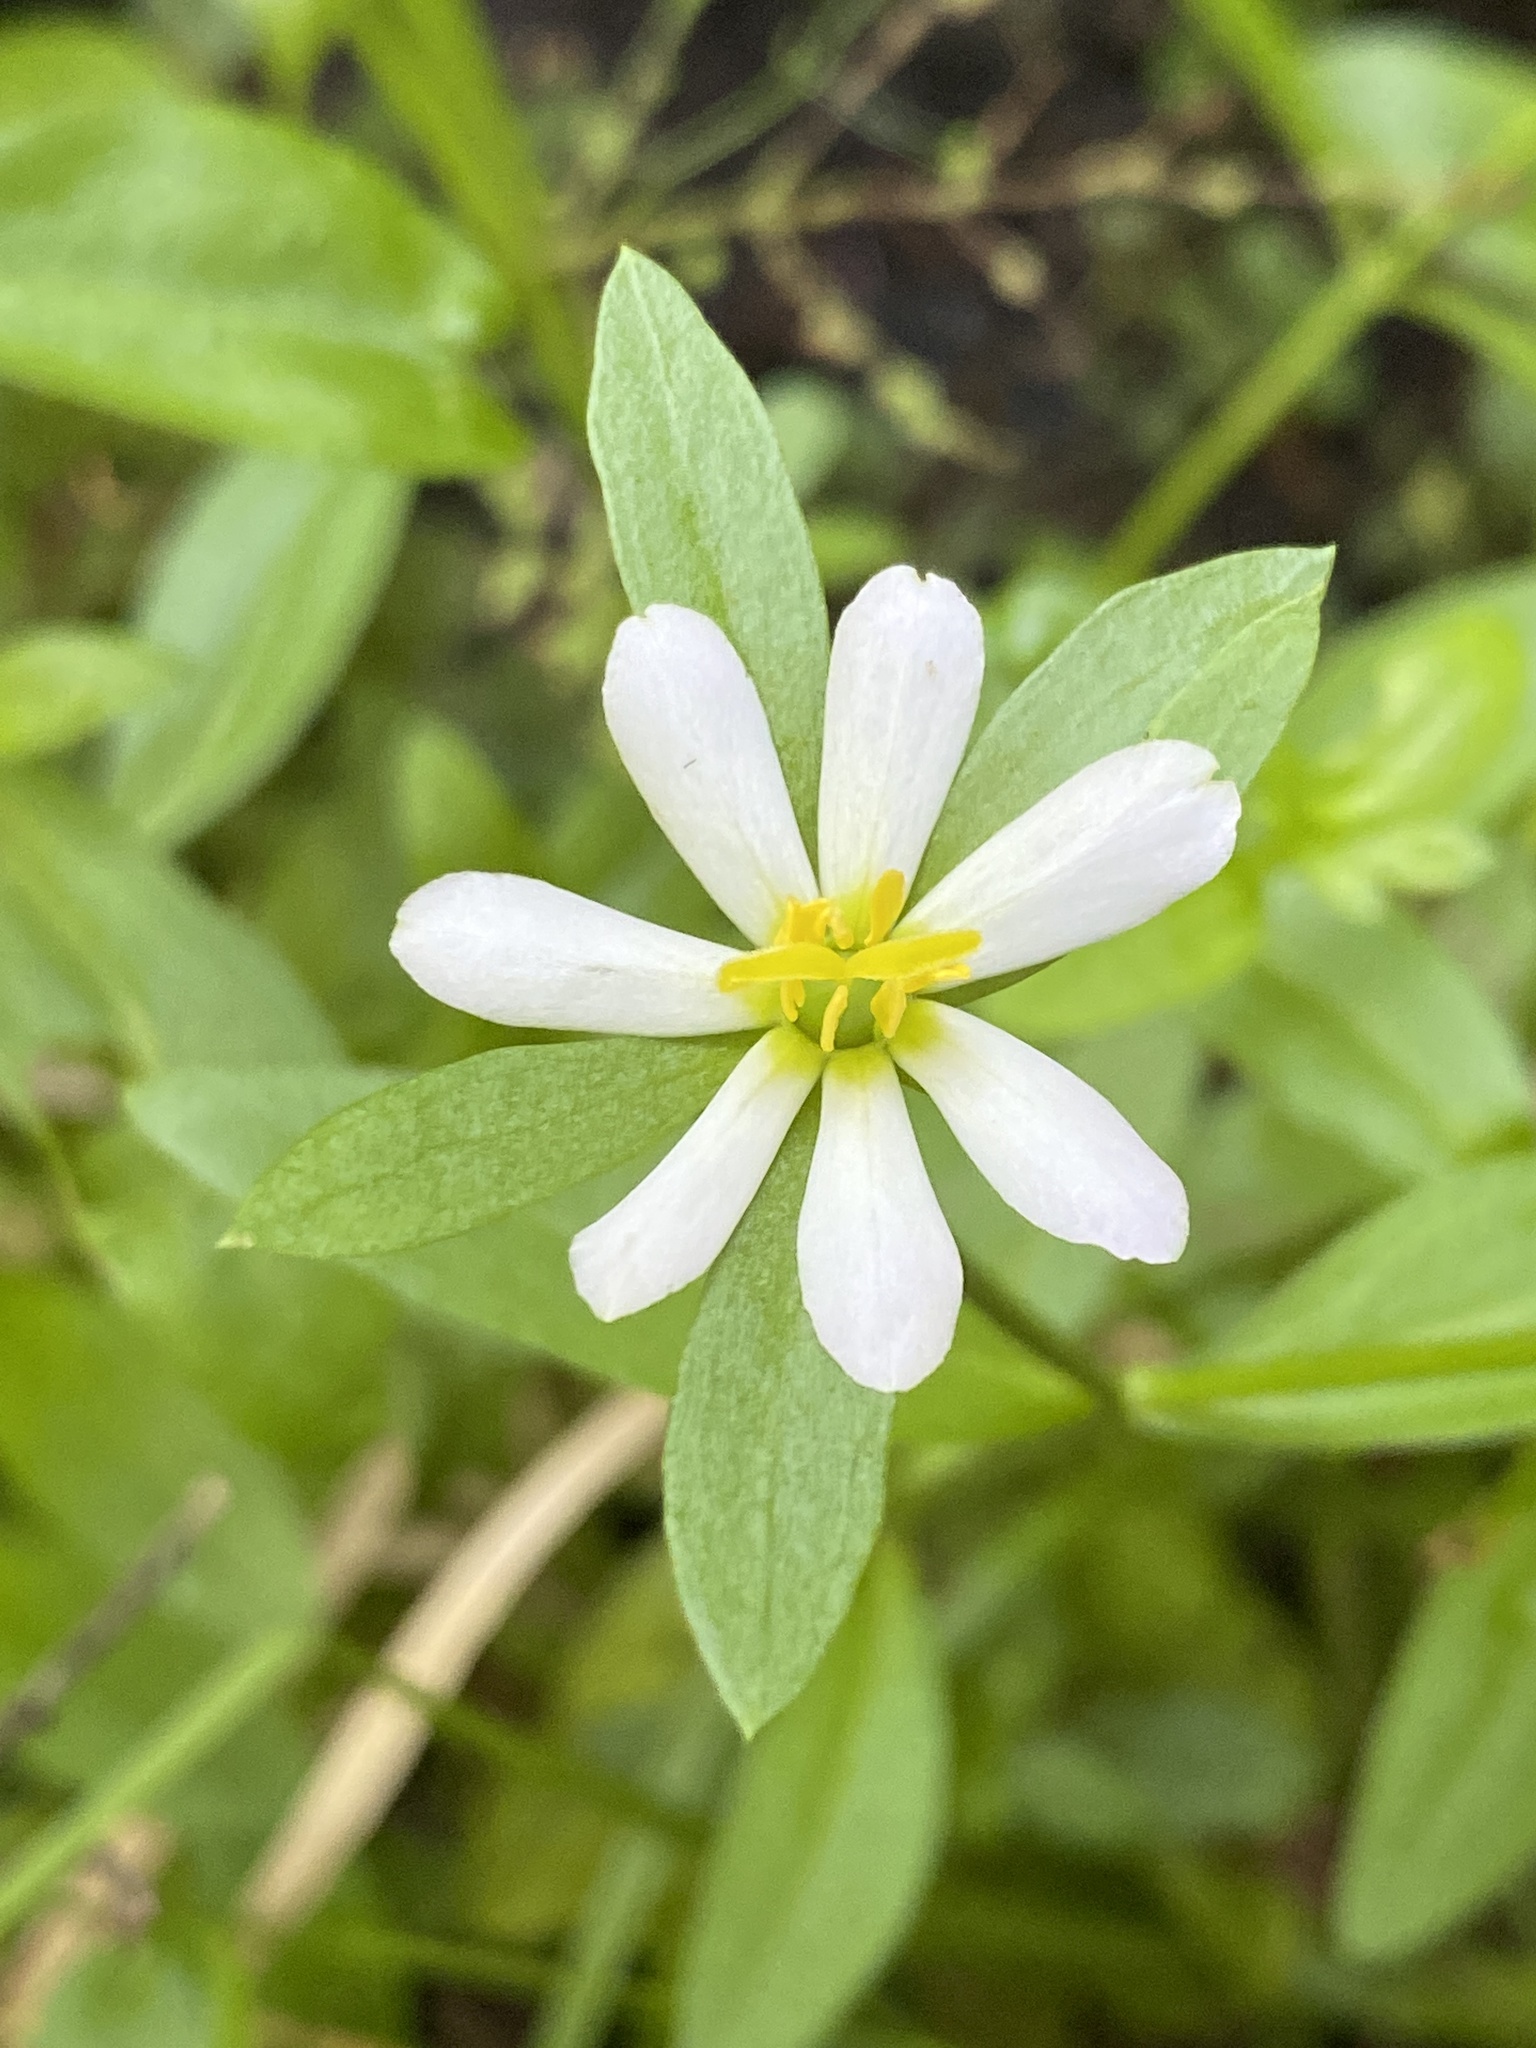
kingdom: Plantae
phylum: Tracheophyta
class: Magnoliopsida
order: Gentianales
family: Gentianaceae
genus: Sabatia
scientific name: Sabatia calycina
